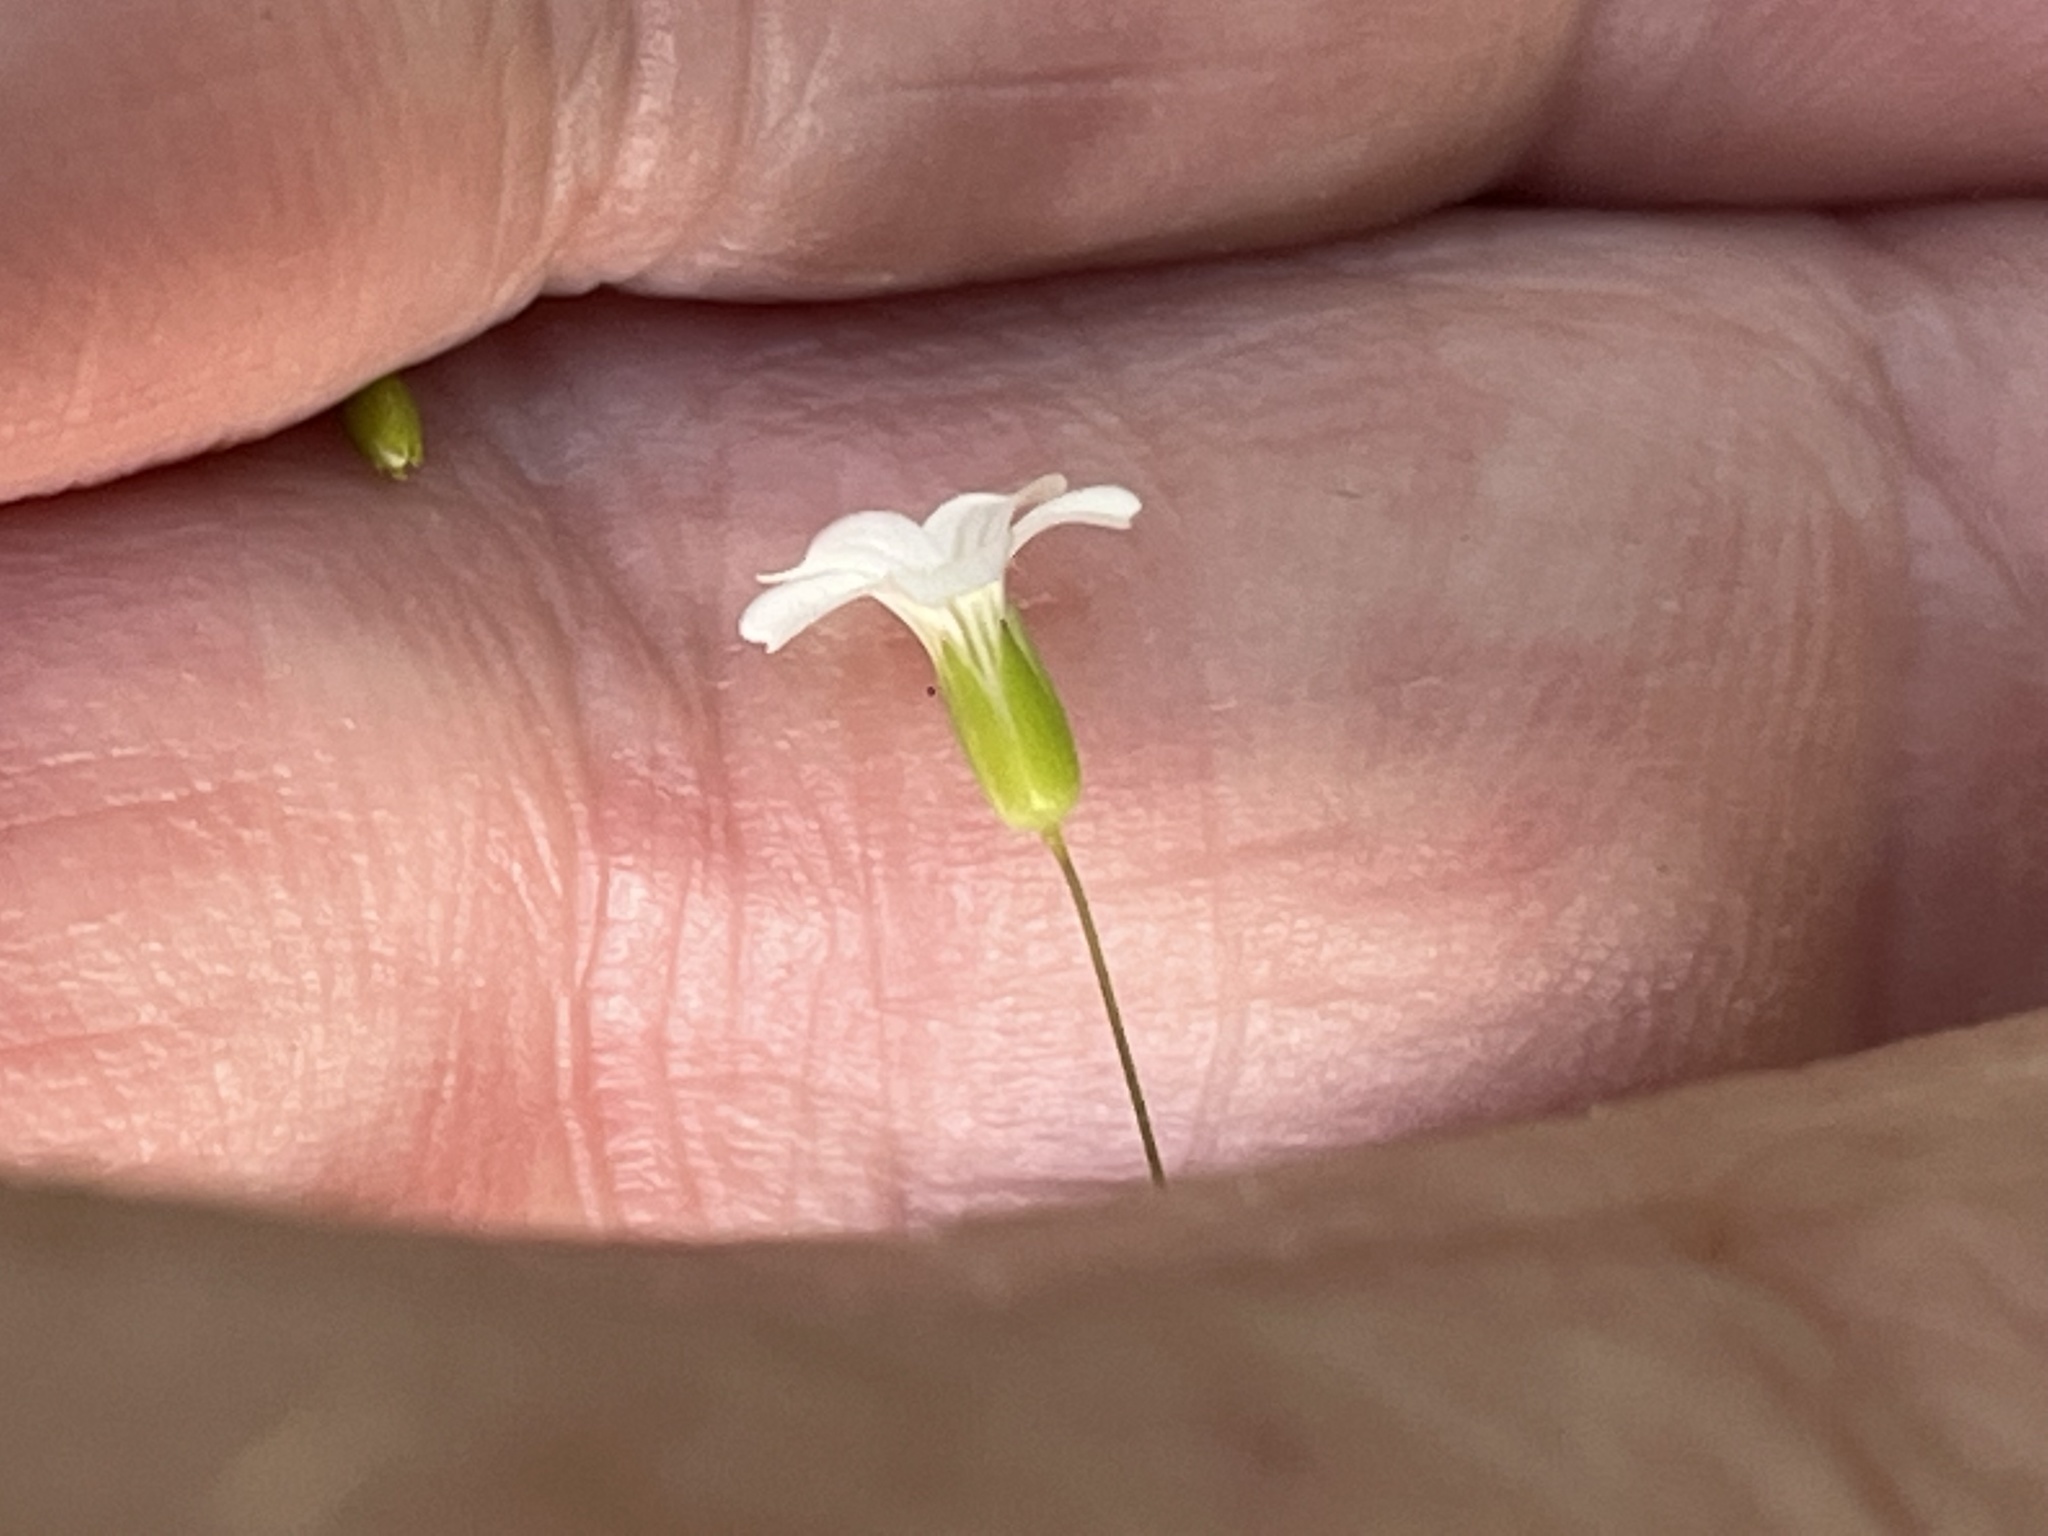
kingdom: Plantae
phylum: Tracheophyta
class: Magnoliopsida
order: Caryophyllales
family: Caryophyllaceae
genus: Mononeuria
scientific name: Mononeuria patula
